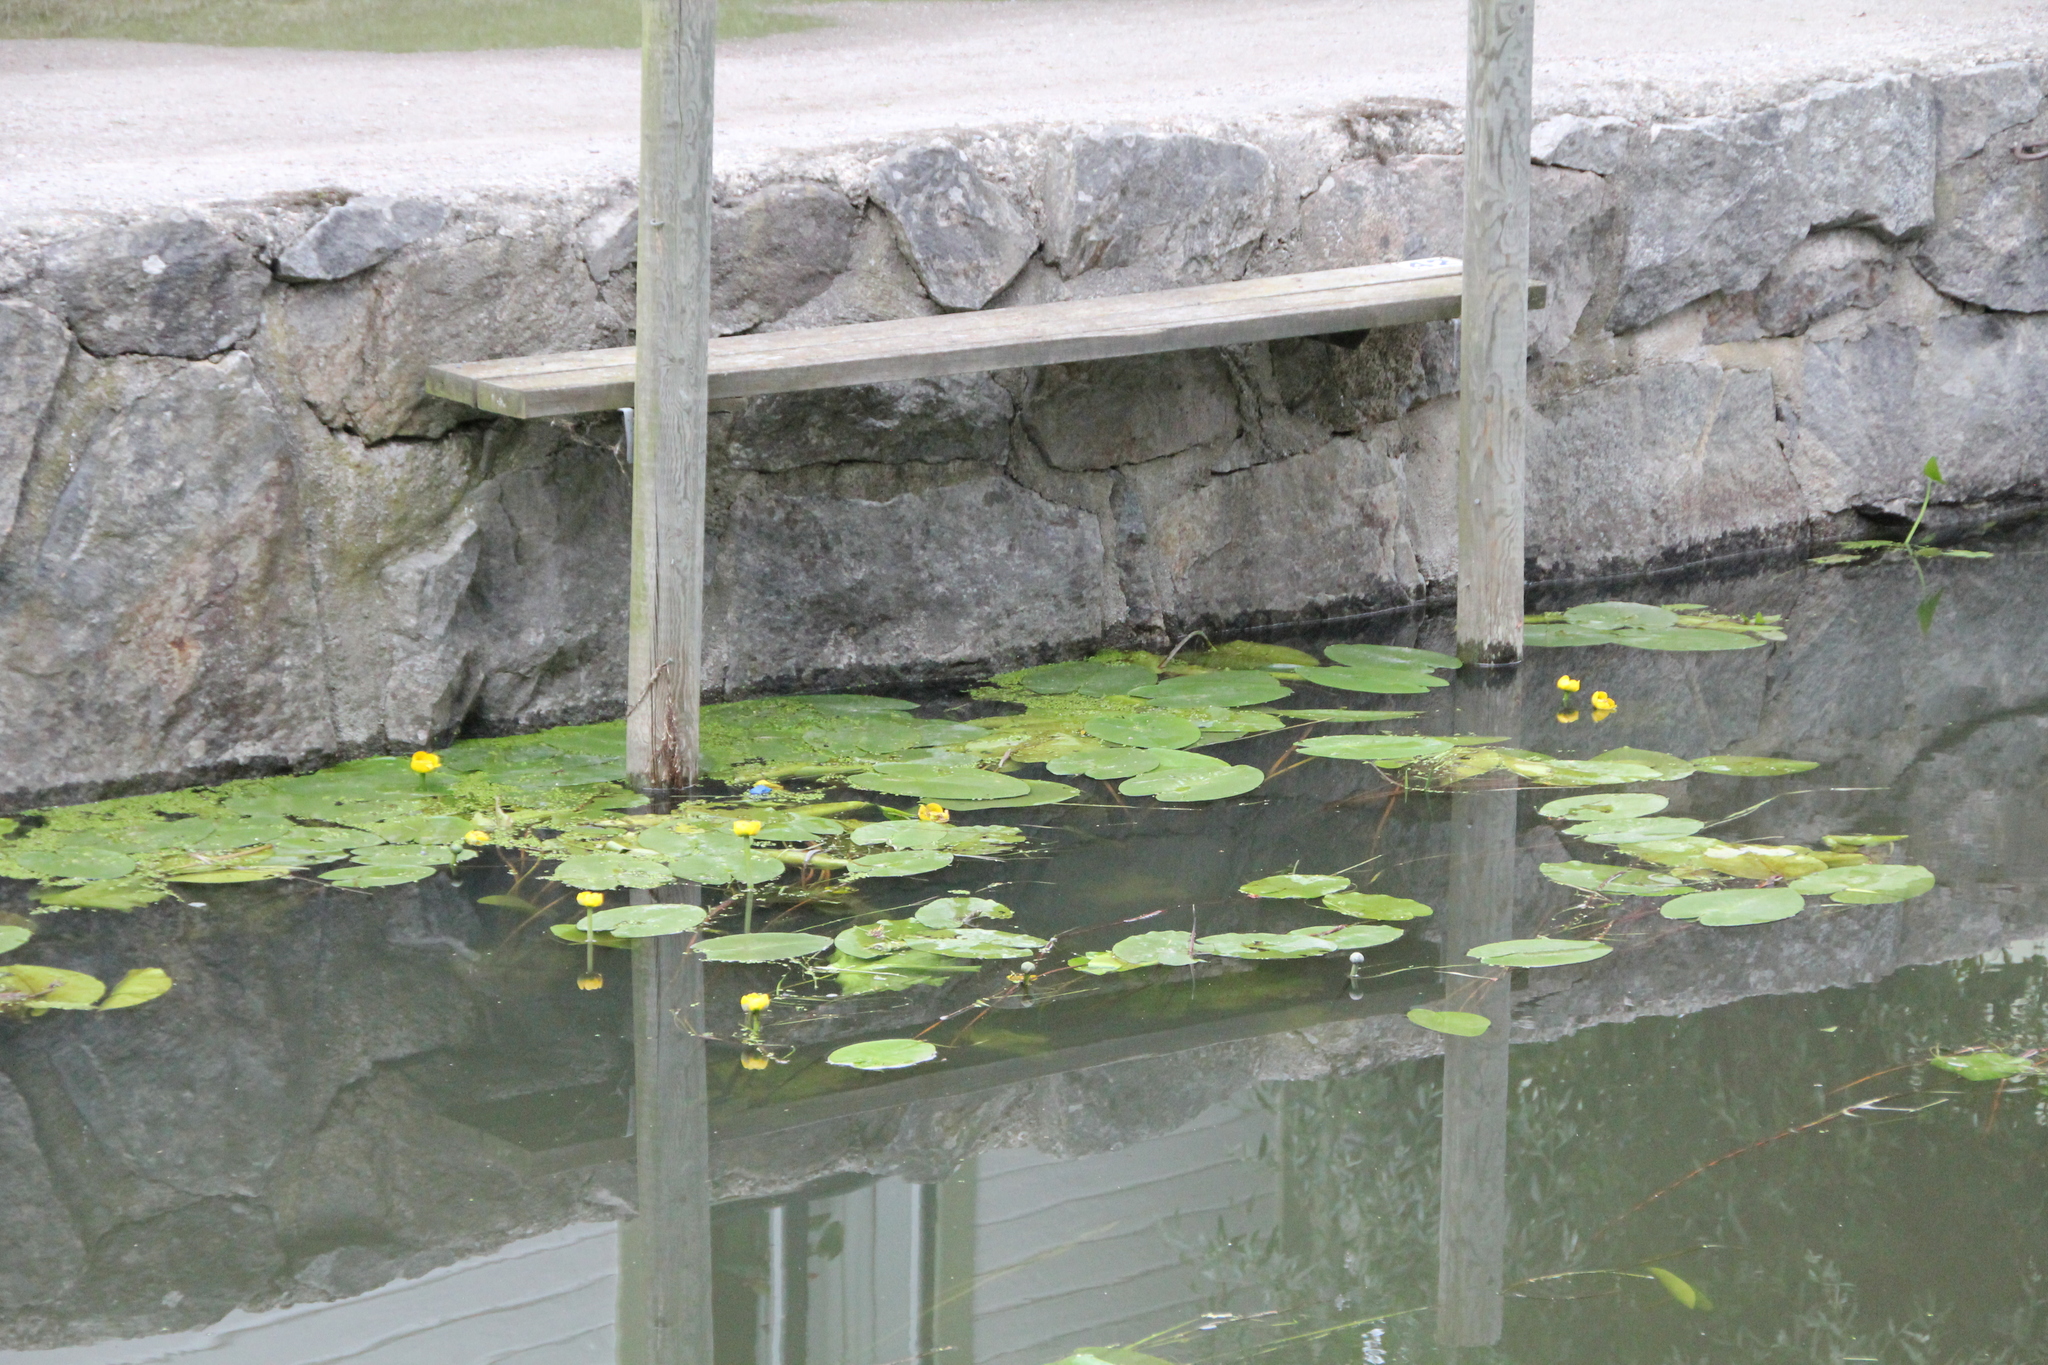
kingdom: Plantae
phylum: Tracheophyta
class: Magnoliopsida
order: Nymphaeales
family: Nymphaeaceae
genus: Nuphar
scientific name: Nuphar lutea
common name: Yellow water-lily
